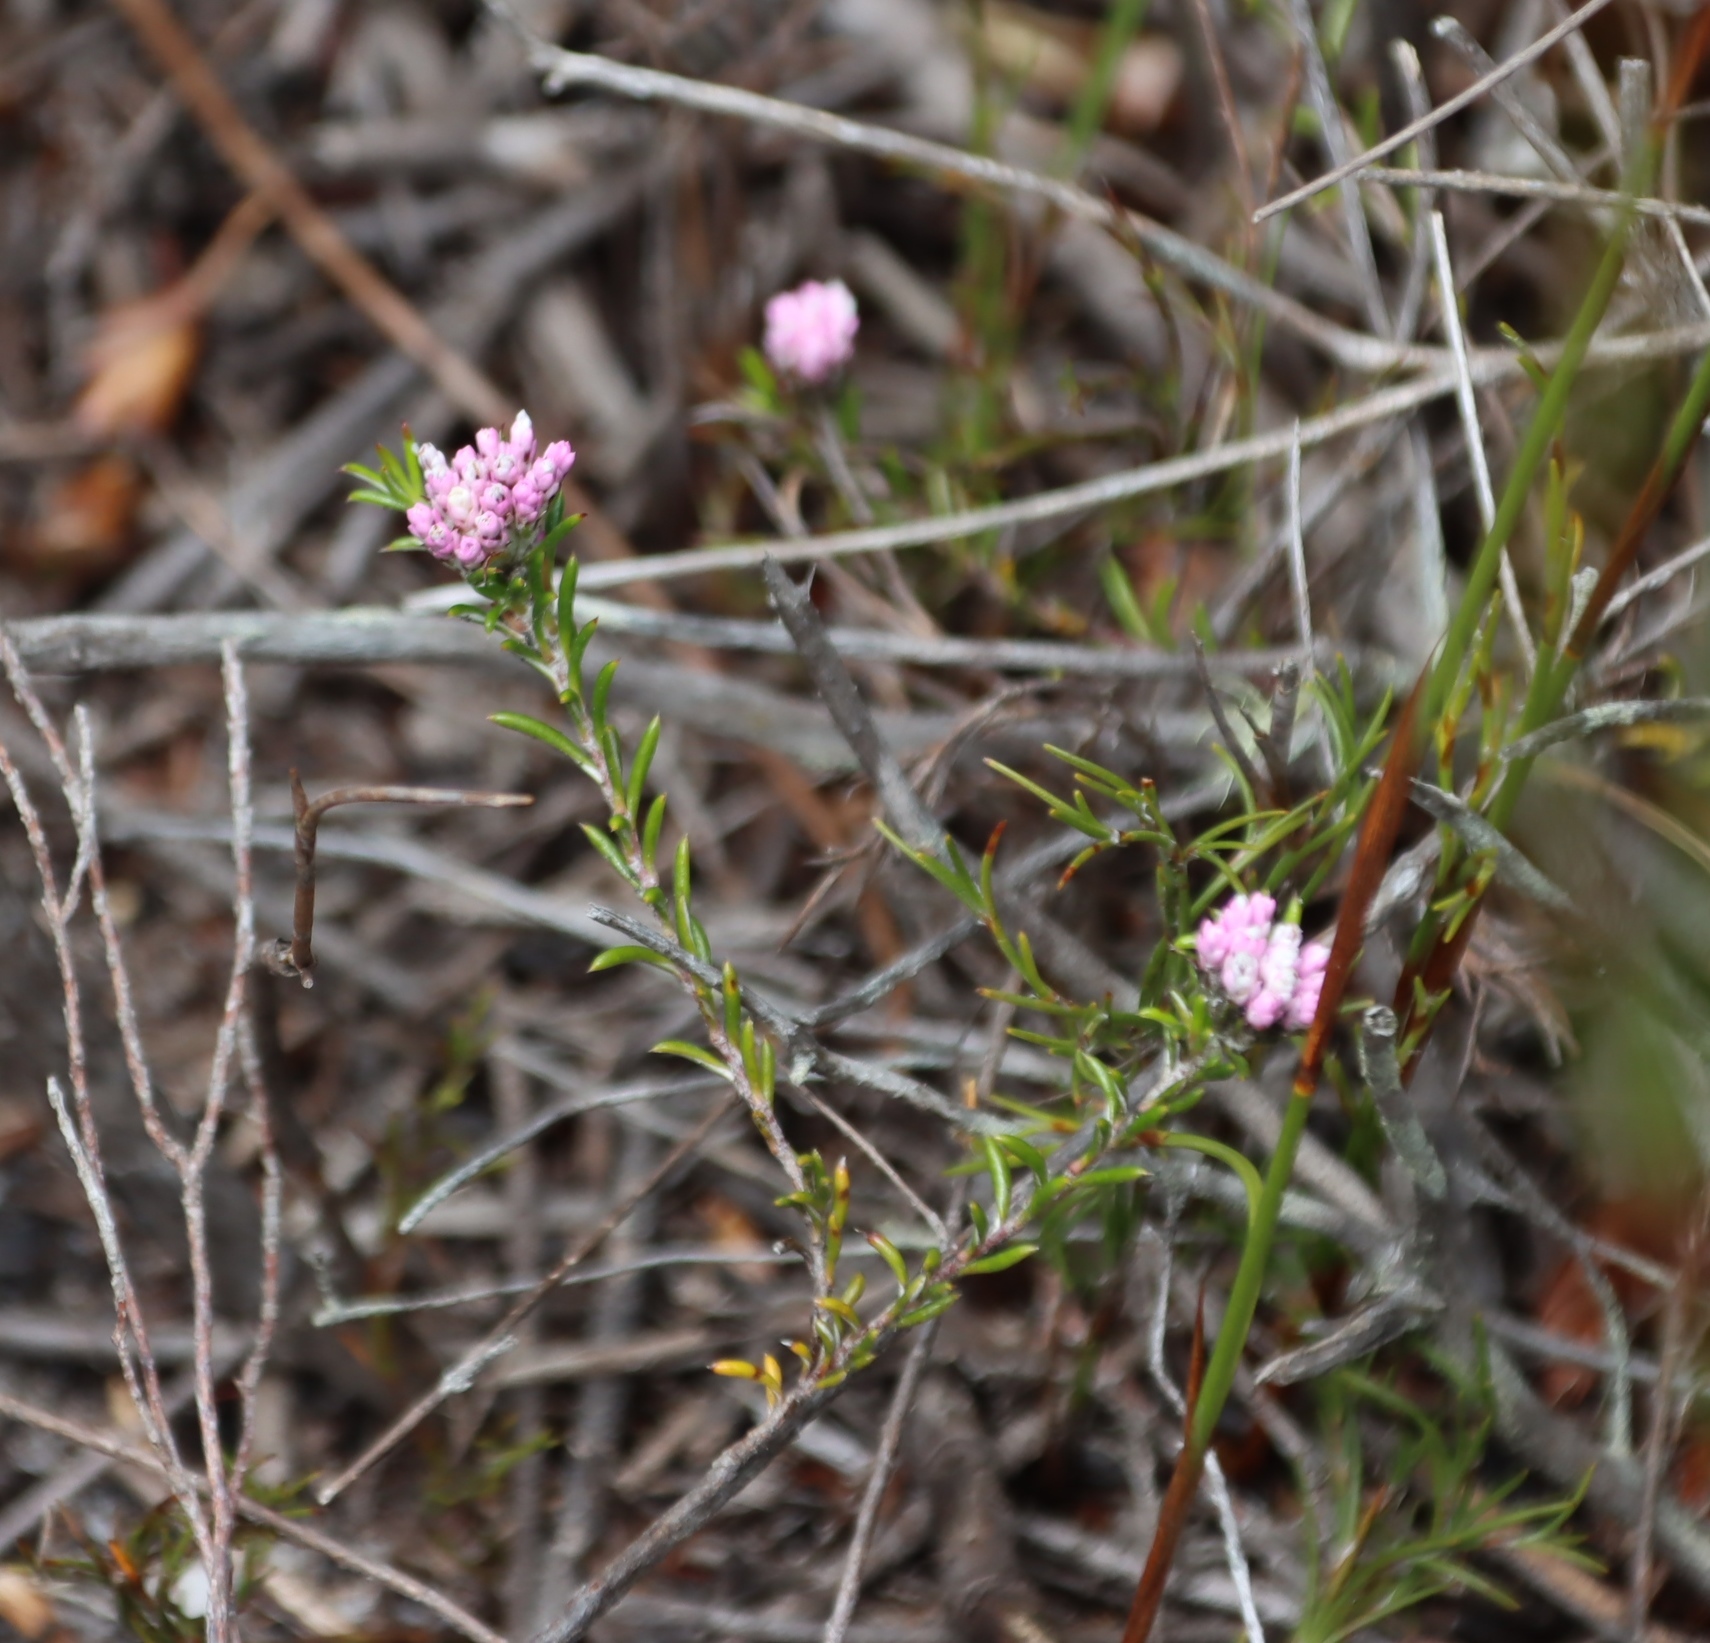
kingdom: Plantae
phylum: Tracheophyta
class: Magnoliopsida
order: Asterales
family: Asteraceae
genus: Metalasia
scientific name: Metalasia serrata
